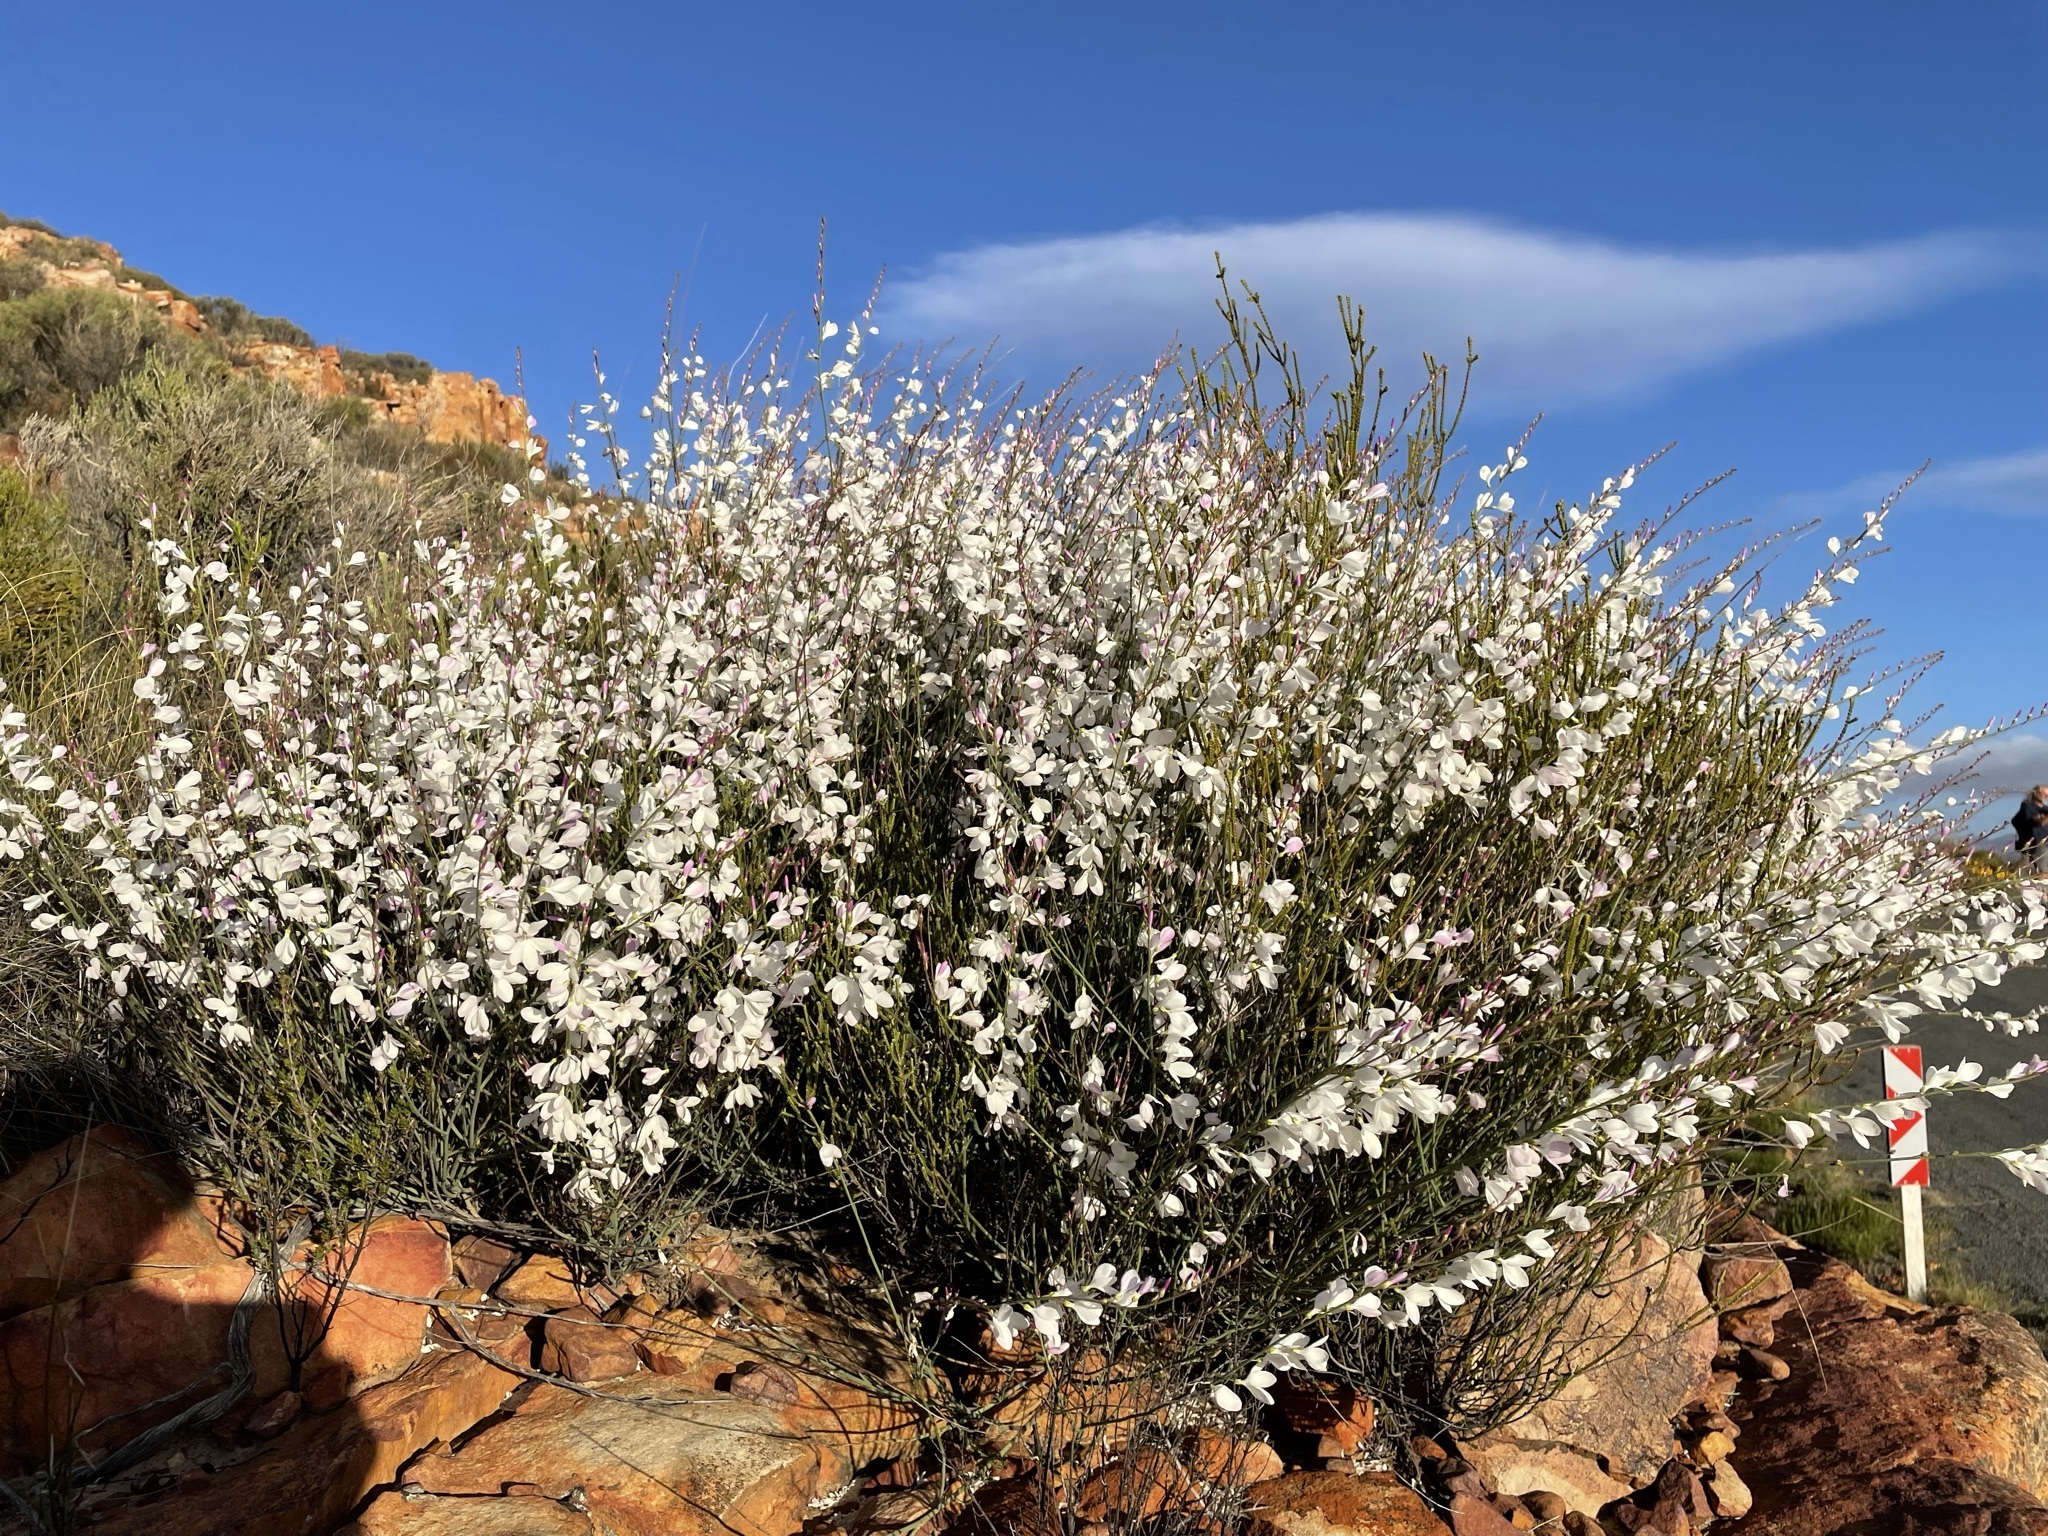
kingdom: Plantae
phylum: Tracheophyta
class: Magnoliopsida
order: Brassicales
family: Brassicaceae
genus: Heliophila
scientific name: Heliophila juncea
